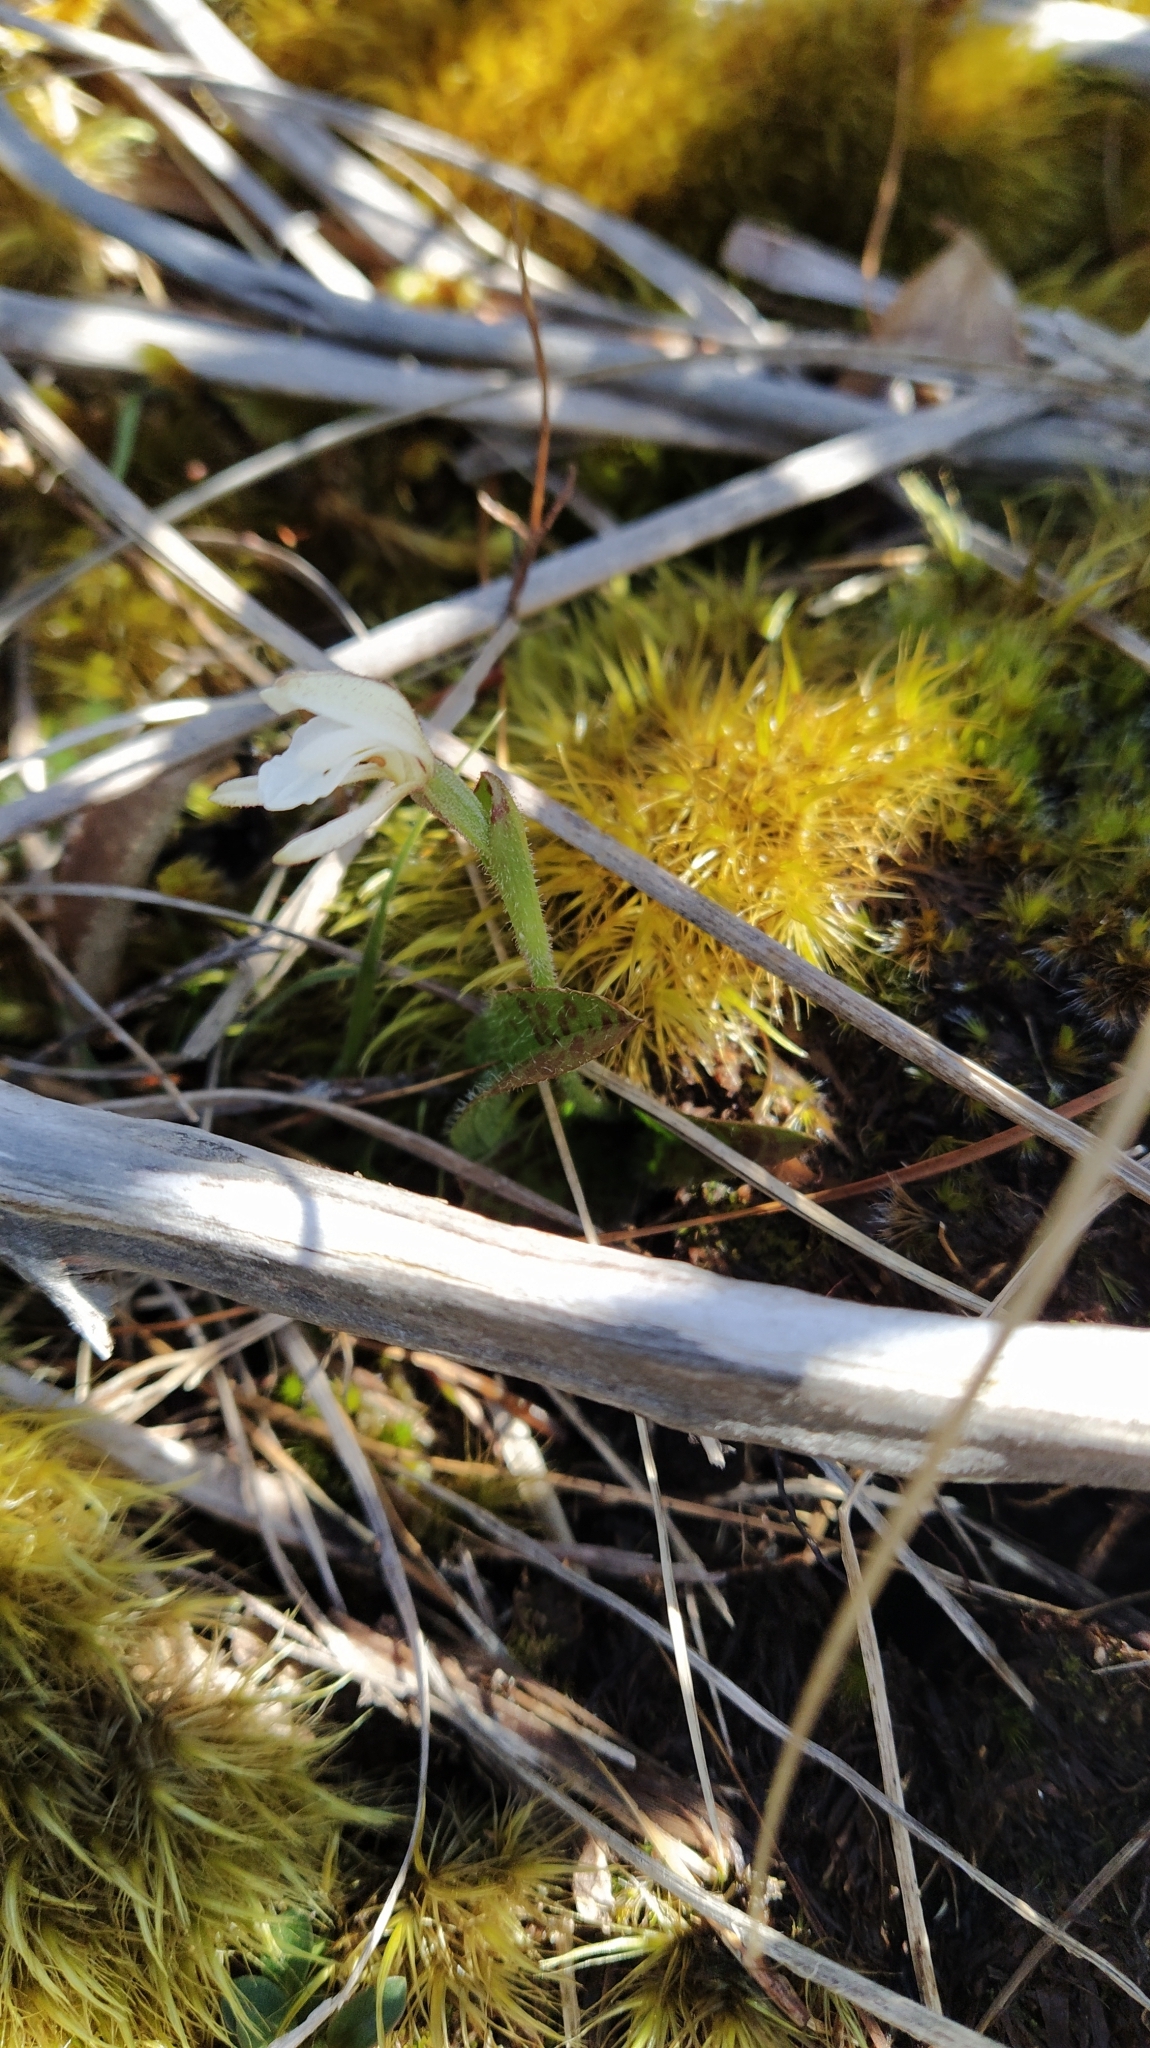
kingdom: Plantae
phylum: Tracheophyta
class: Liliopsida
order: Asparagales
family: Orchidaceae
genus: Aporostylis
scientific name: Aporostylis bifolia
